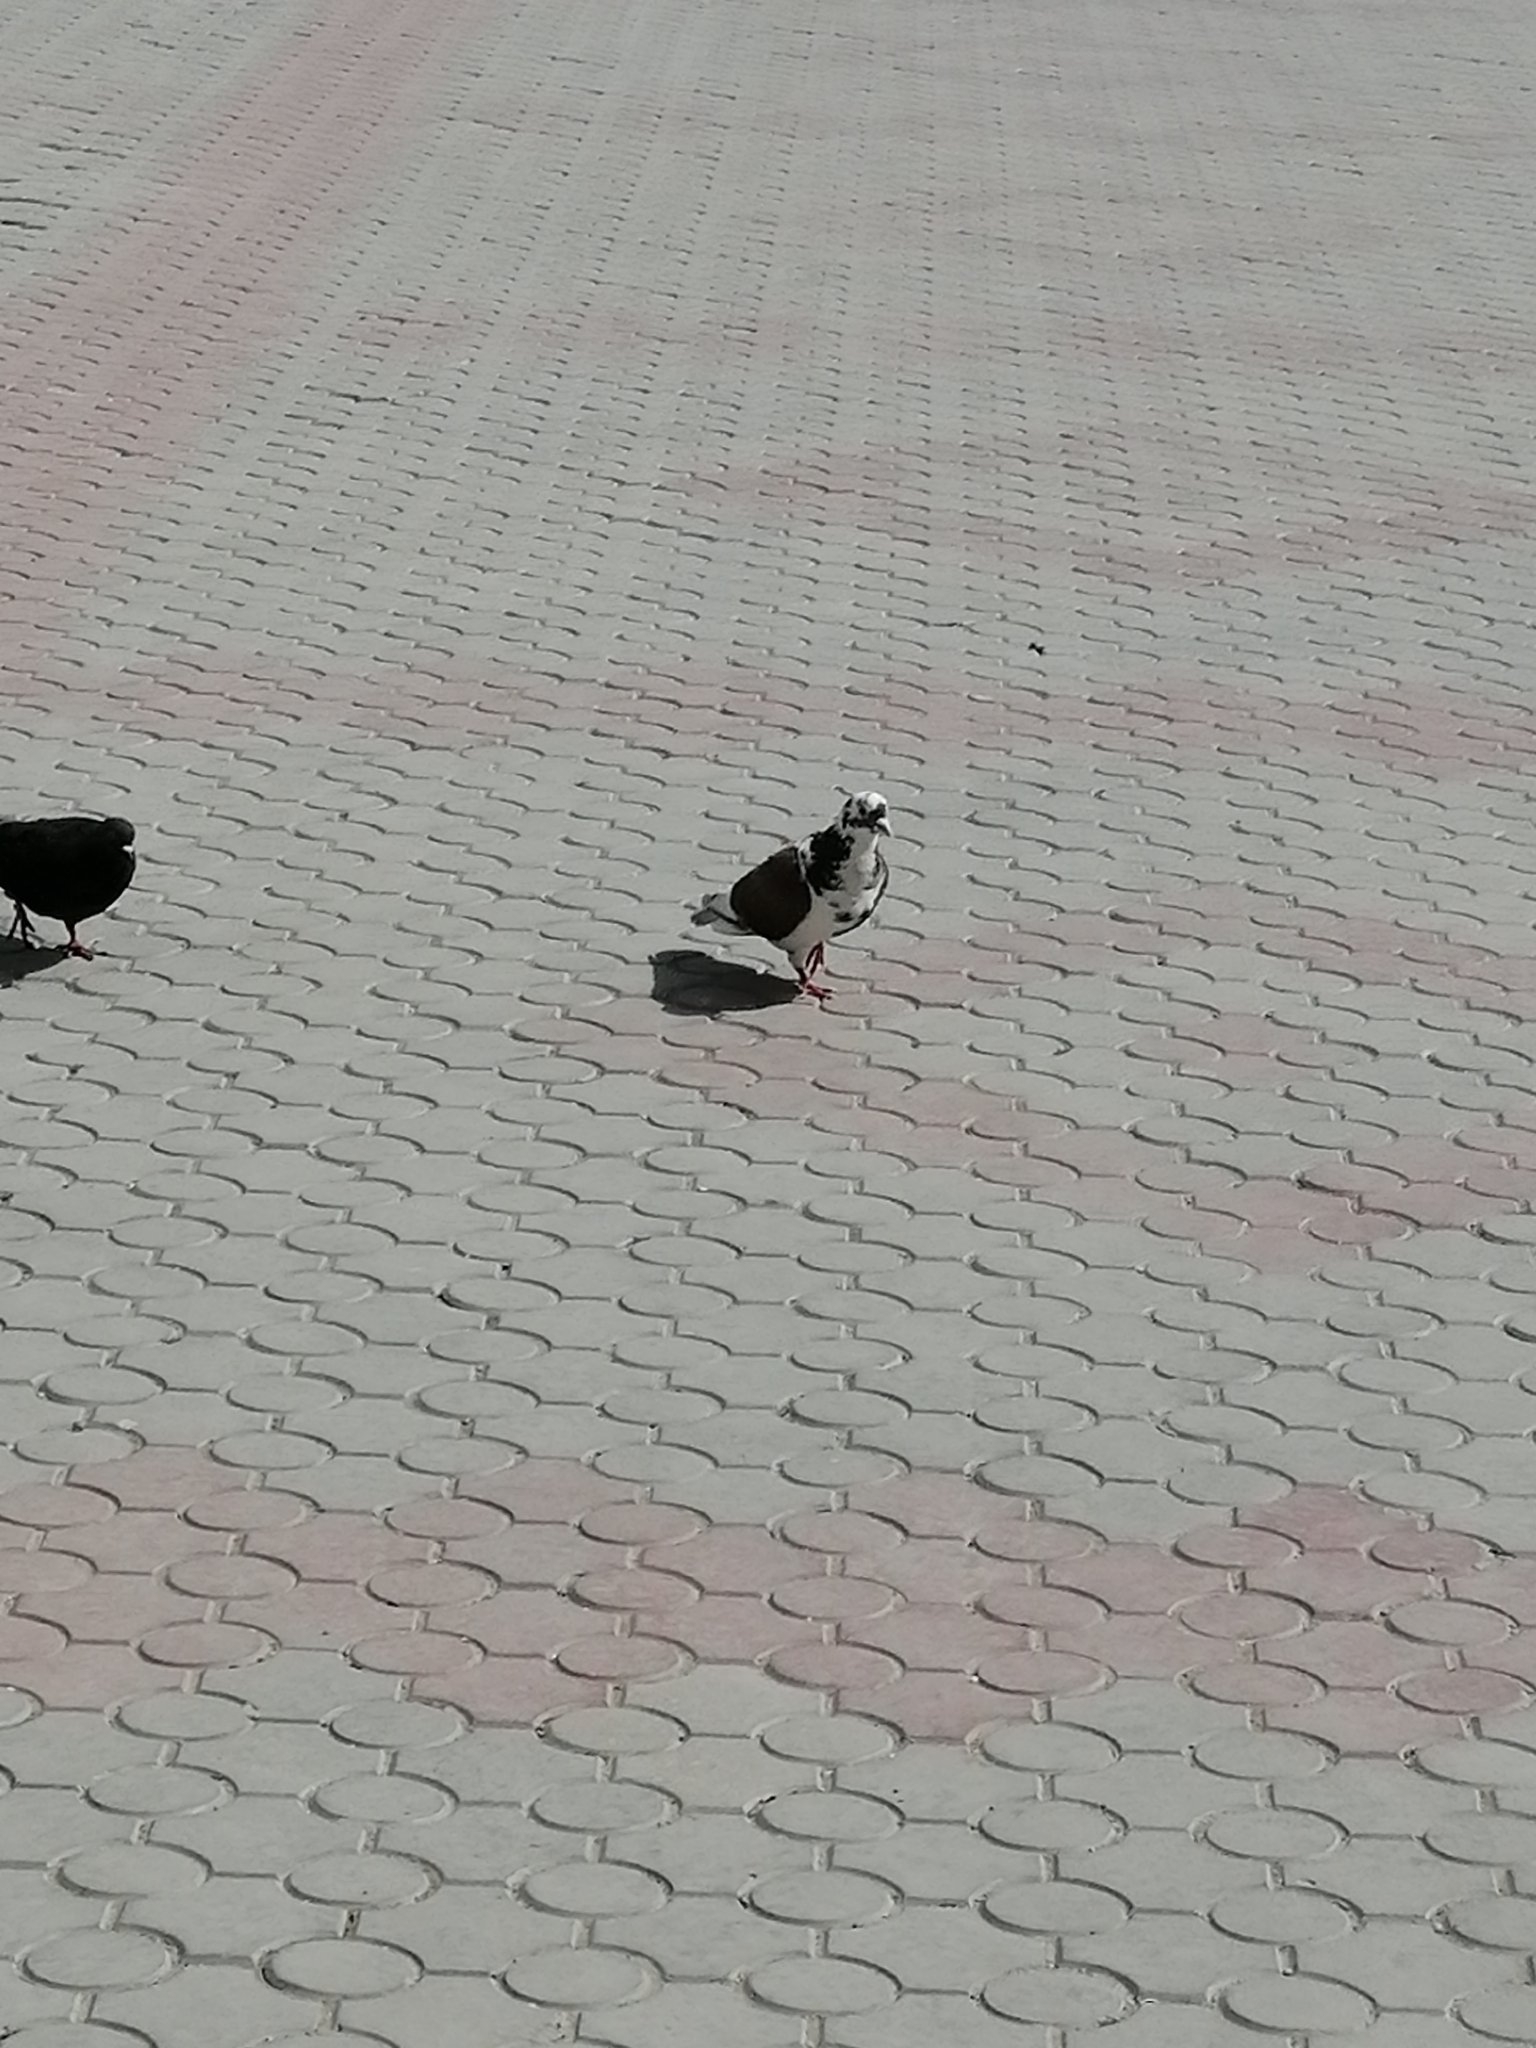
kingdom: Animalia
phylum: Chordata
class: Aves
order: Columbiformes
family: Columbidae
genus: Columba
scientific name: Columba livia
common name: Rock pigeon
